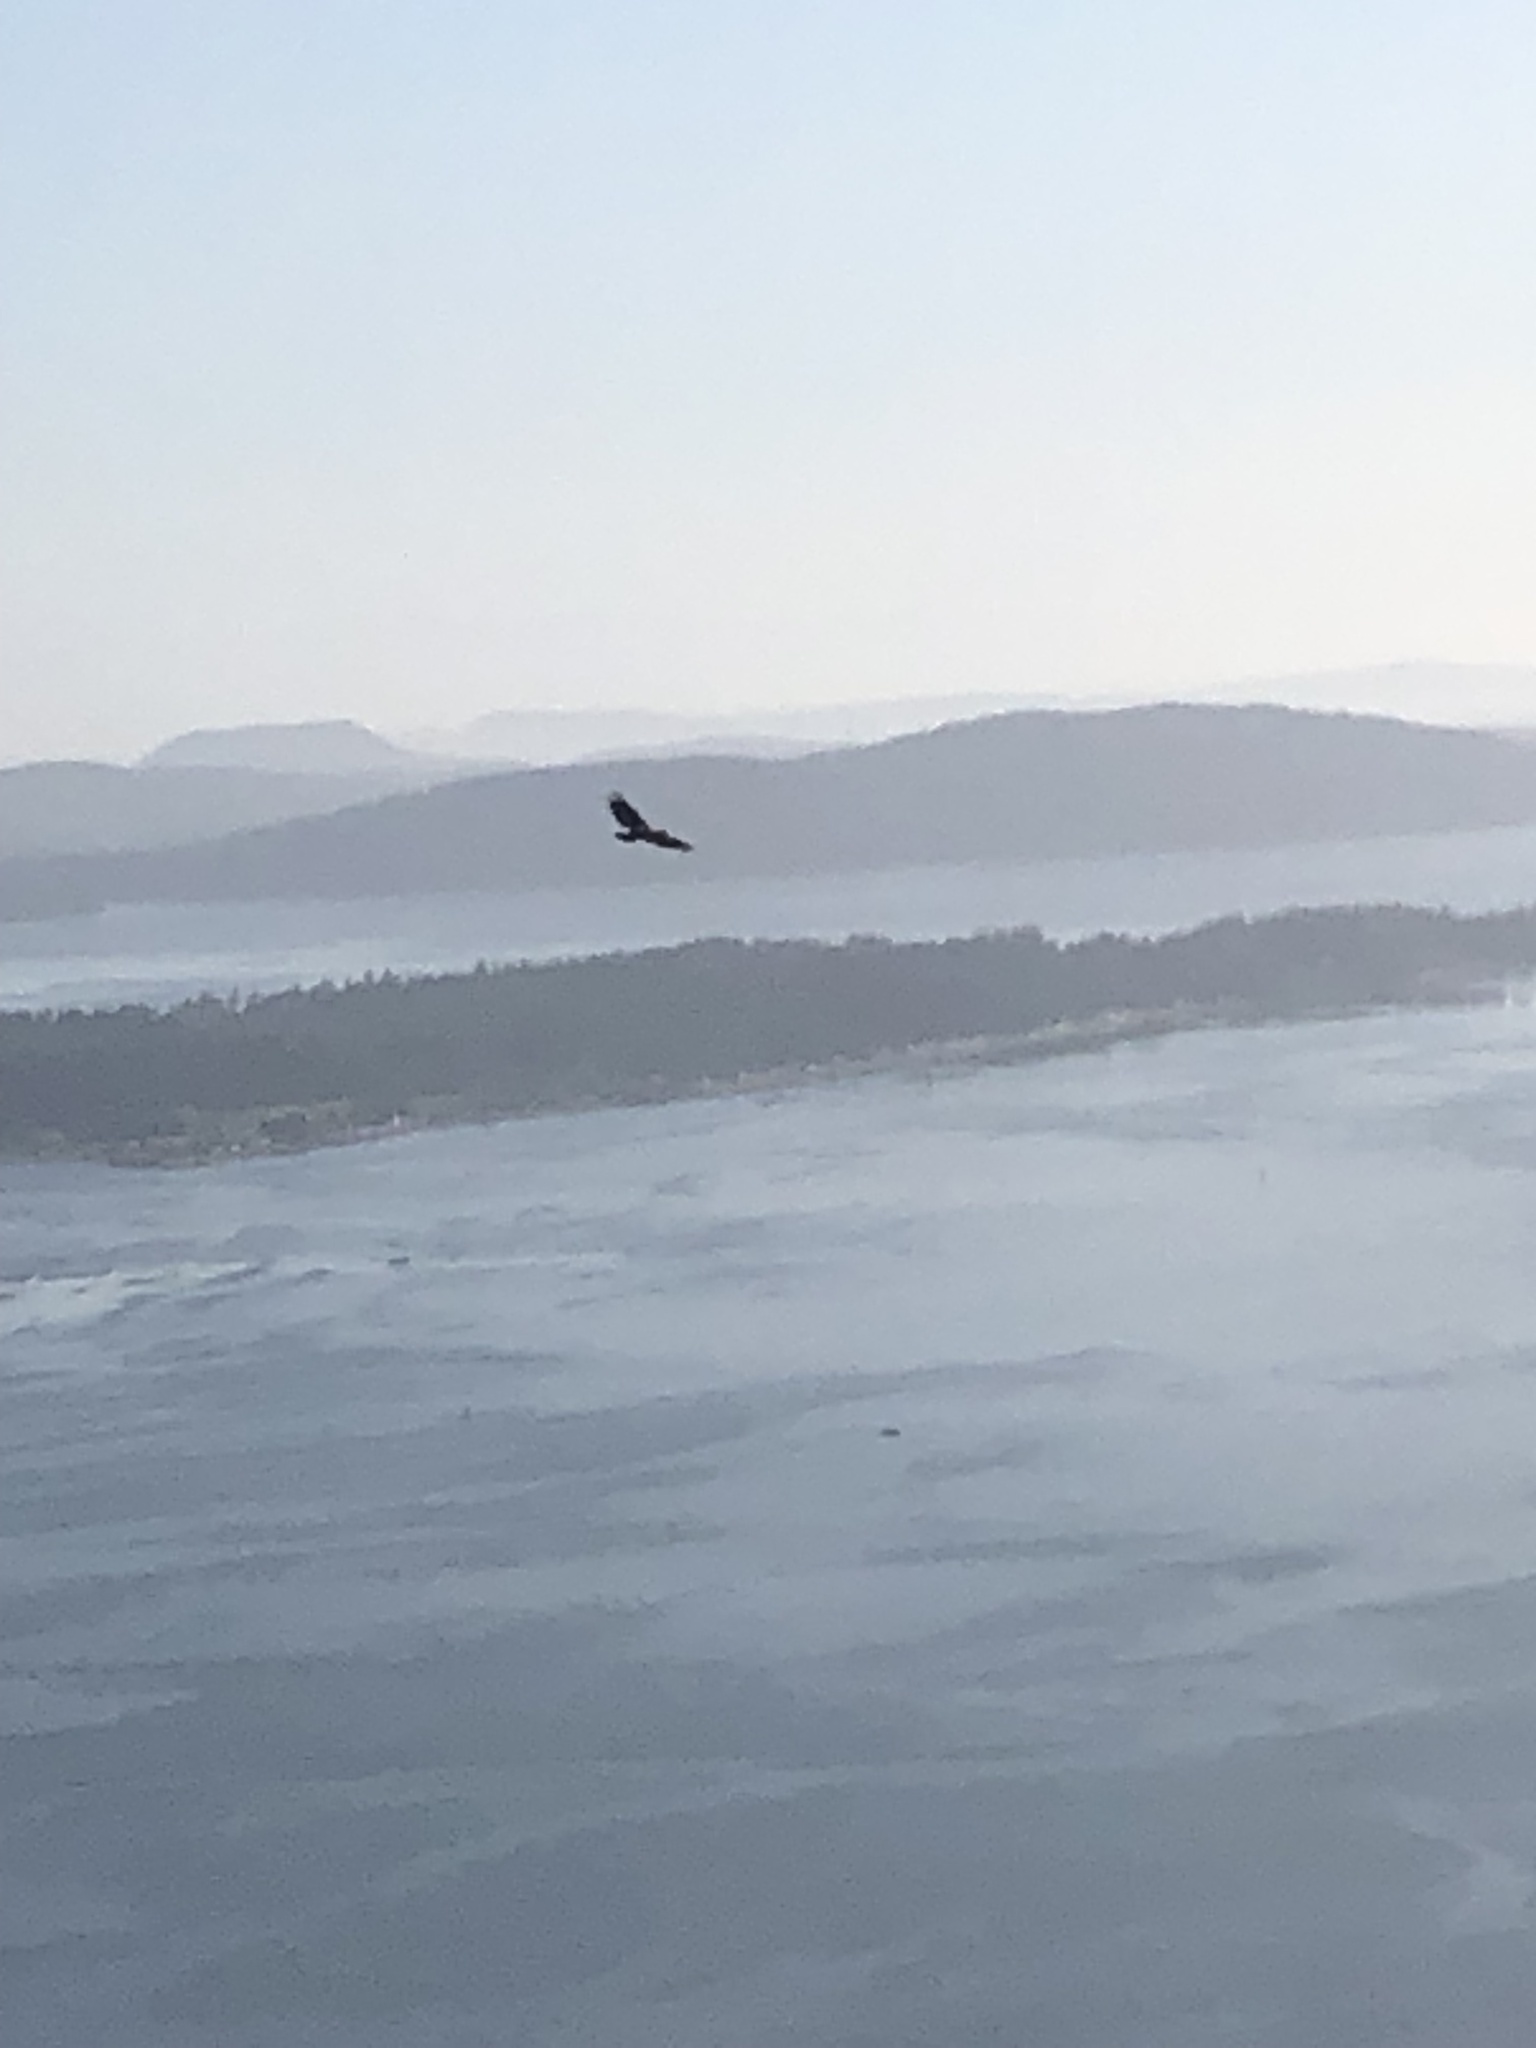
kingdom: Animalia
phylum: Chordata
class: Aves
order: Accipitriformes
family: Accipitridae
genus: Haliaeetus
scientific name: Haliaeetus leucocephalus
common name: Bald eagle
